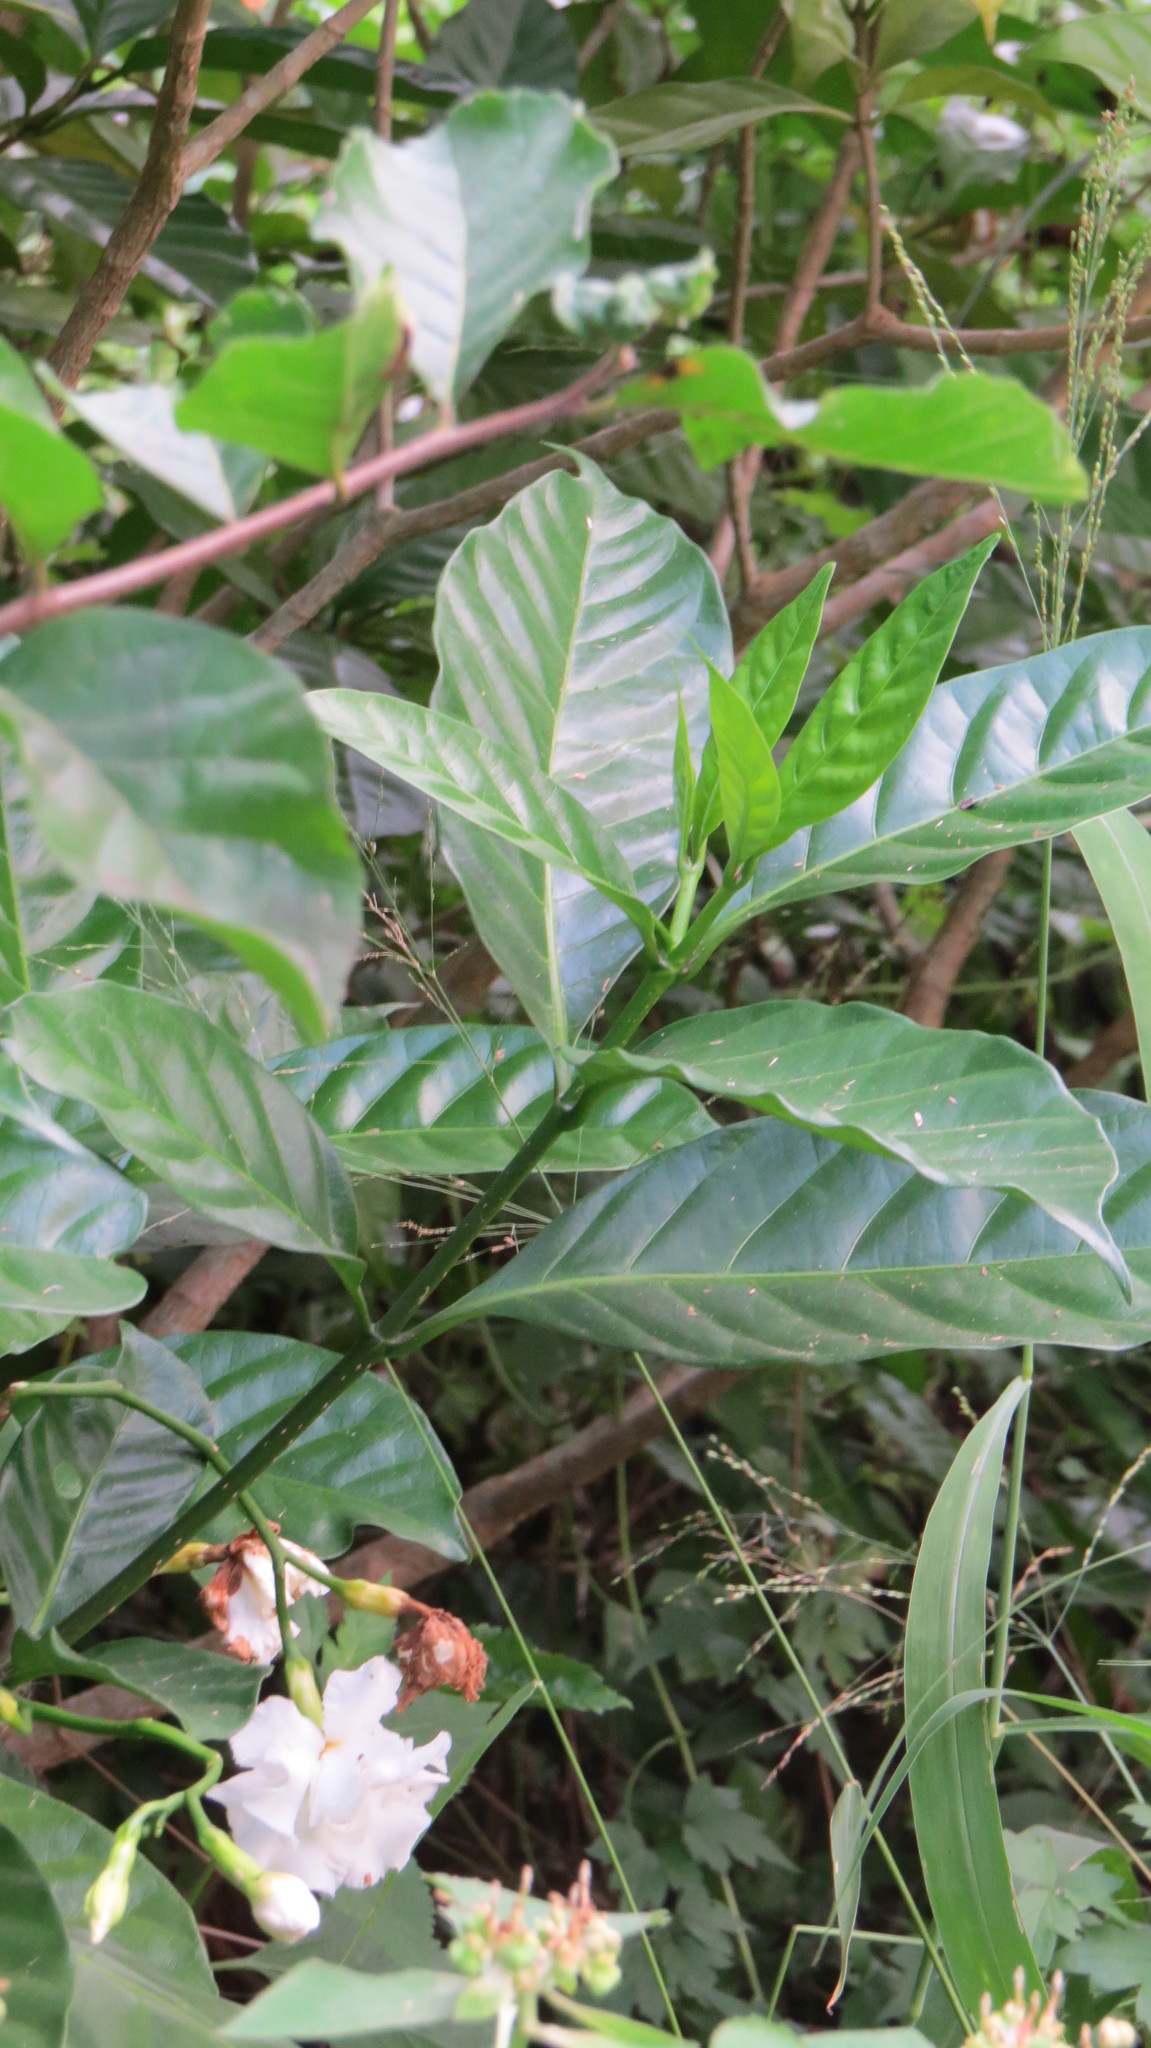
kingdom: Plantae
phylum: Tracheophyta
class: Magnoliopsida
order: Gentianales
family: Apocynaceae
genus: Tabernaemontana
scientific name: Tabernaemontana divaricata
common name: Pinwheelflower
